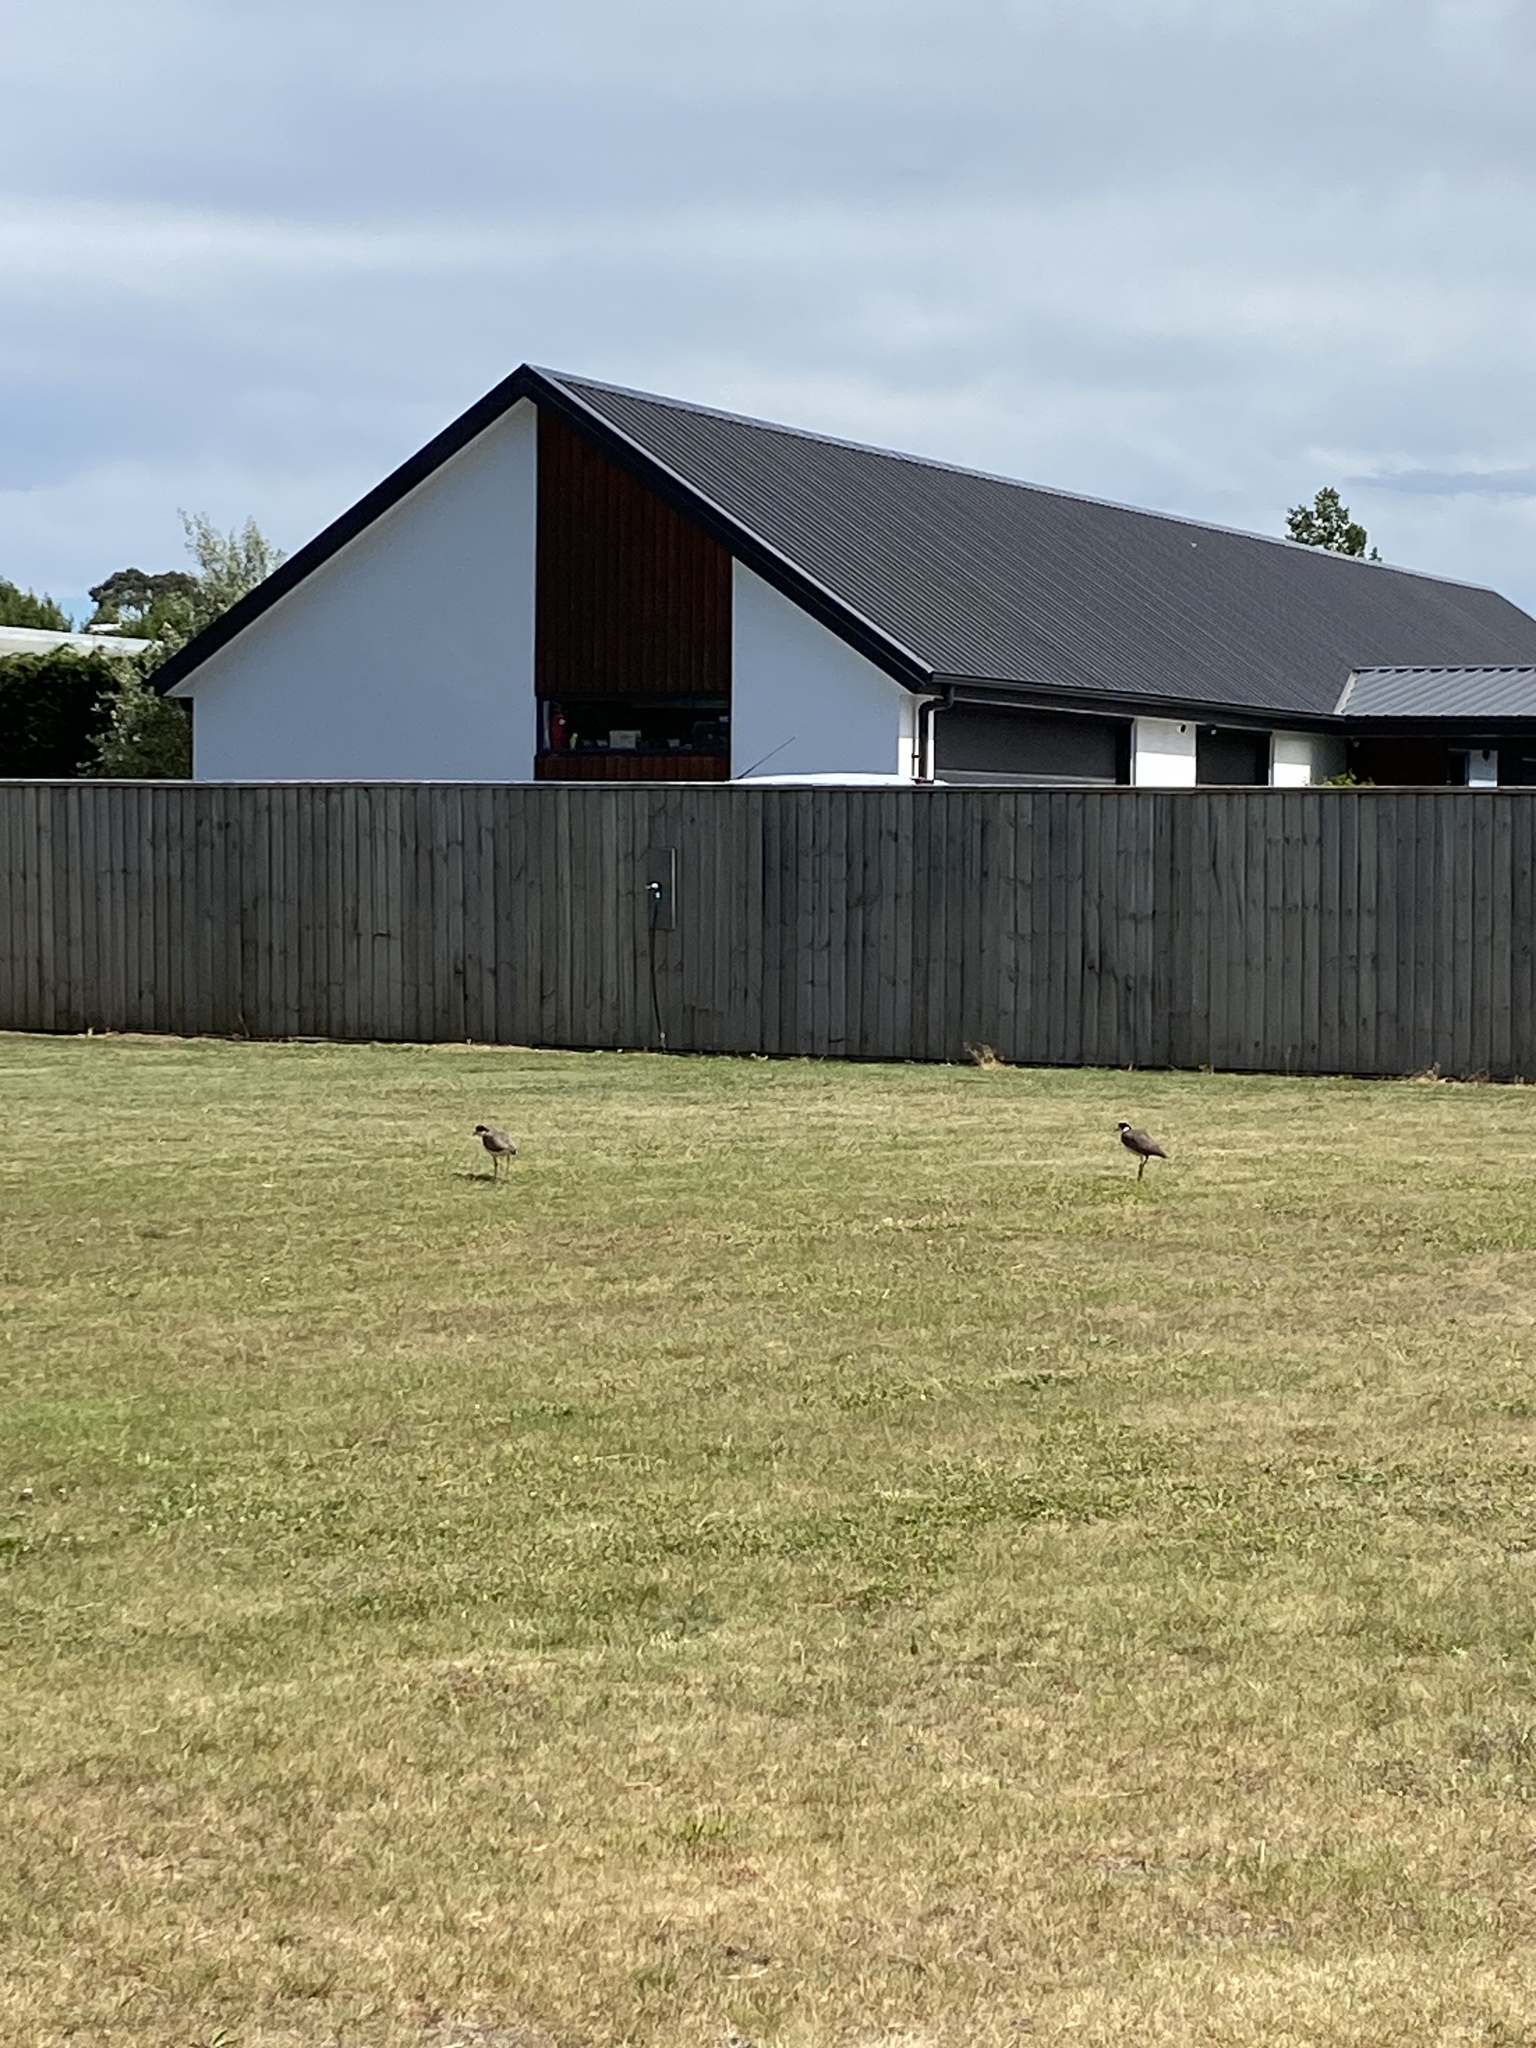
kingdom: Animalia
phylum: Chordata
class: Aves
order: Charadriiformes
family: Charadriidae
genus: Vanellus
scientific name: Vanellus miles
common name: Masked lapwing
